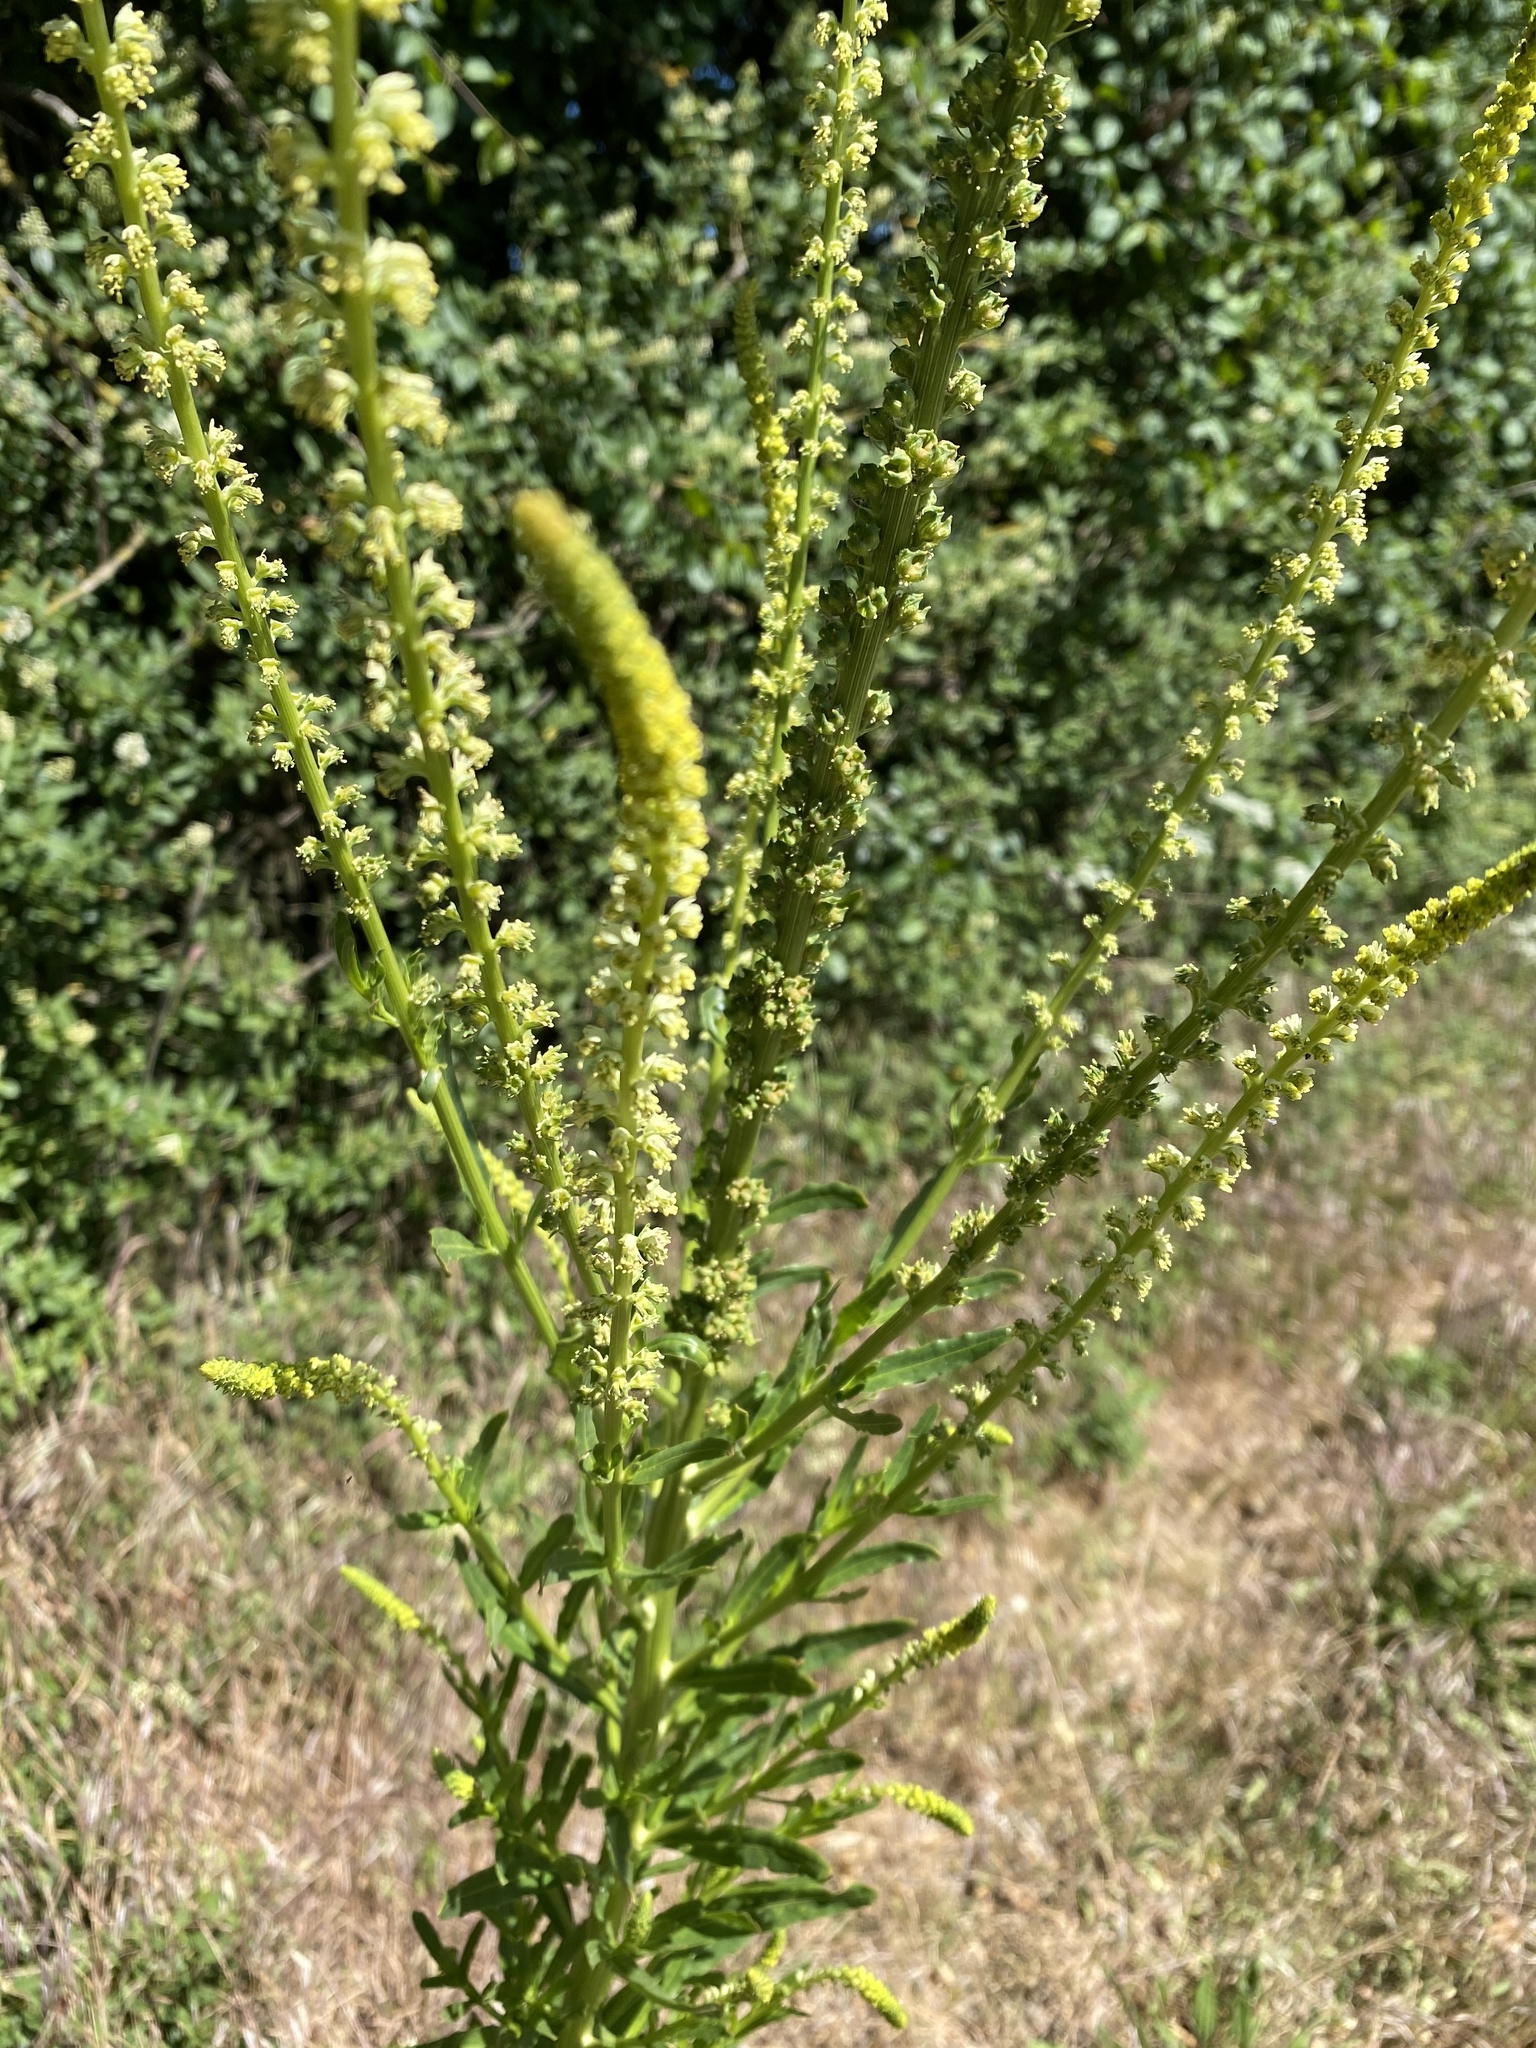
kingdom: Plantae
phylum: Tracheophyta
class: Magnoliopsida
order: Brassicales
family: Resedaceae
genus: Reseda
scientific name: Reseda luteola
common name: Weld
